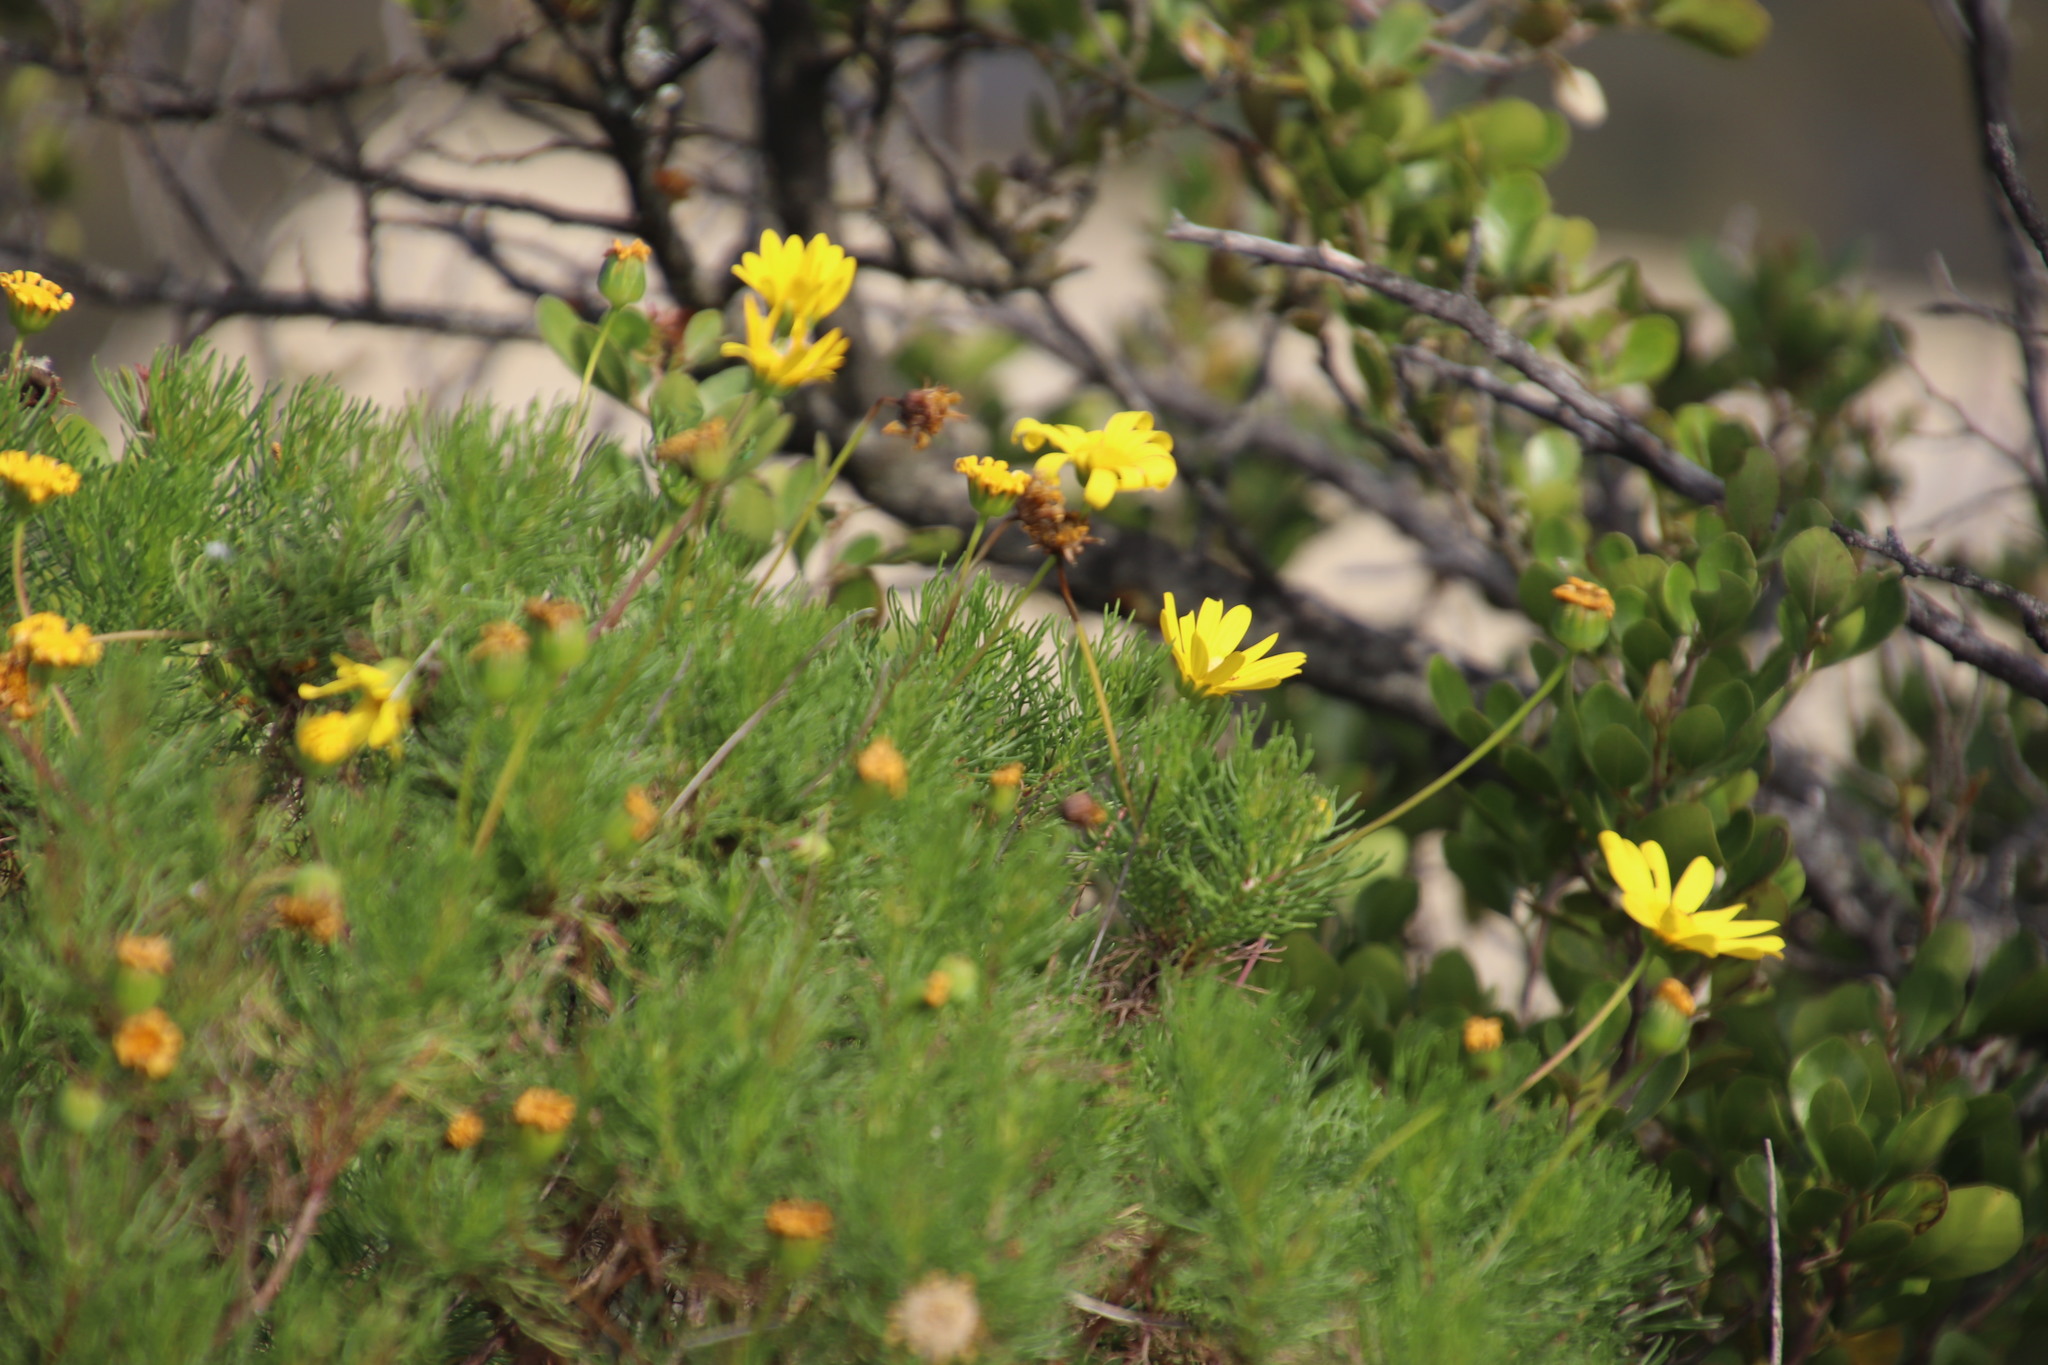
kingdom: Plantae
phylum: Tracheophyta
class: Magnoliopsida
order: Asterales
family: Asteraceae
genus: Euryops
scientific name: Euryops abrotanifolius
